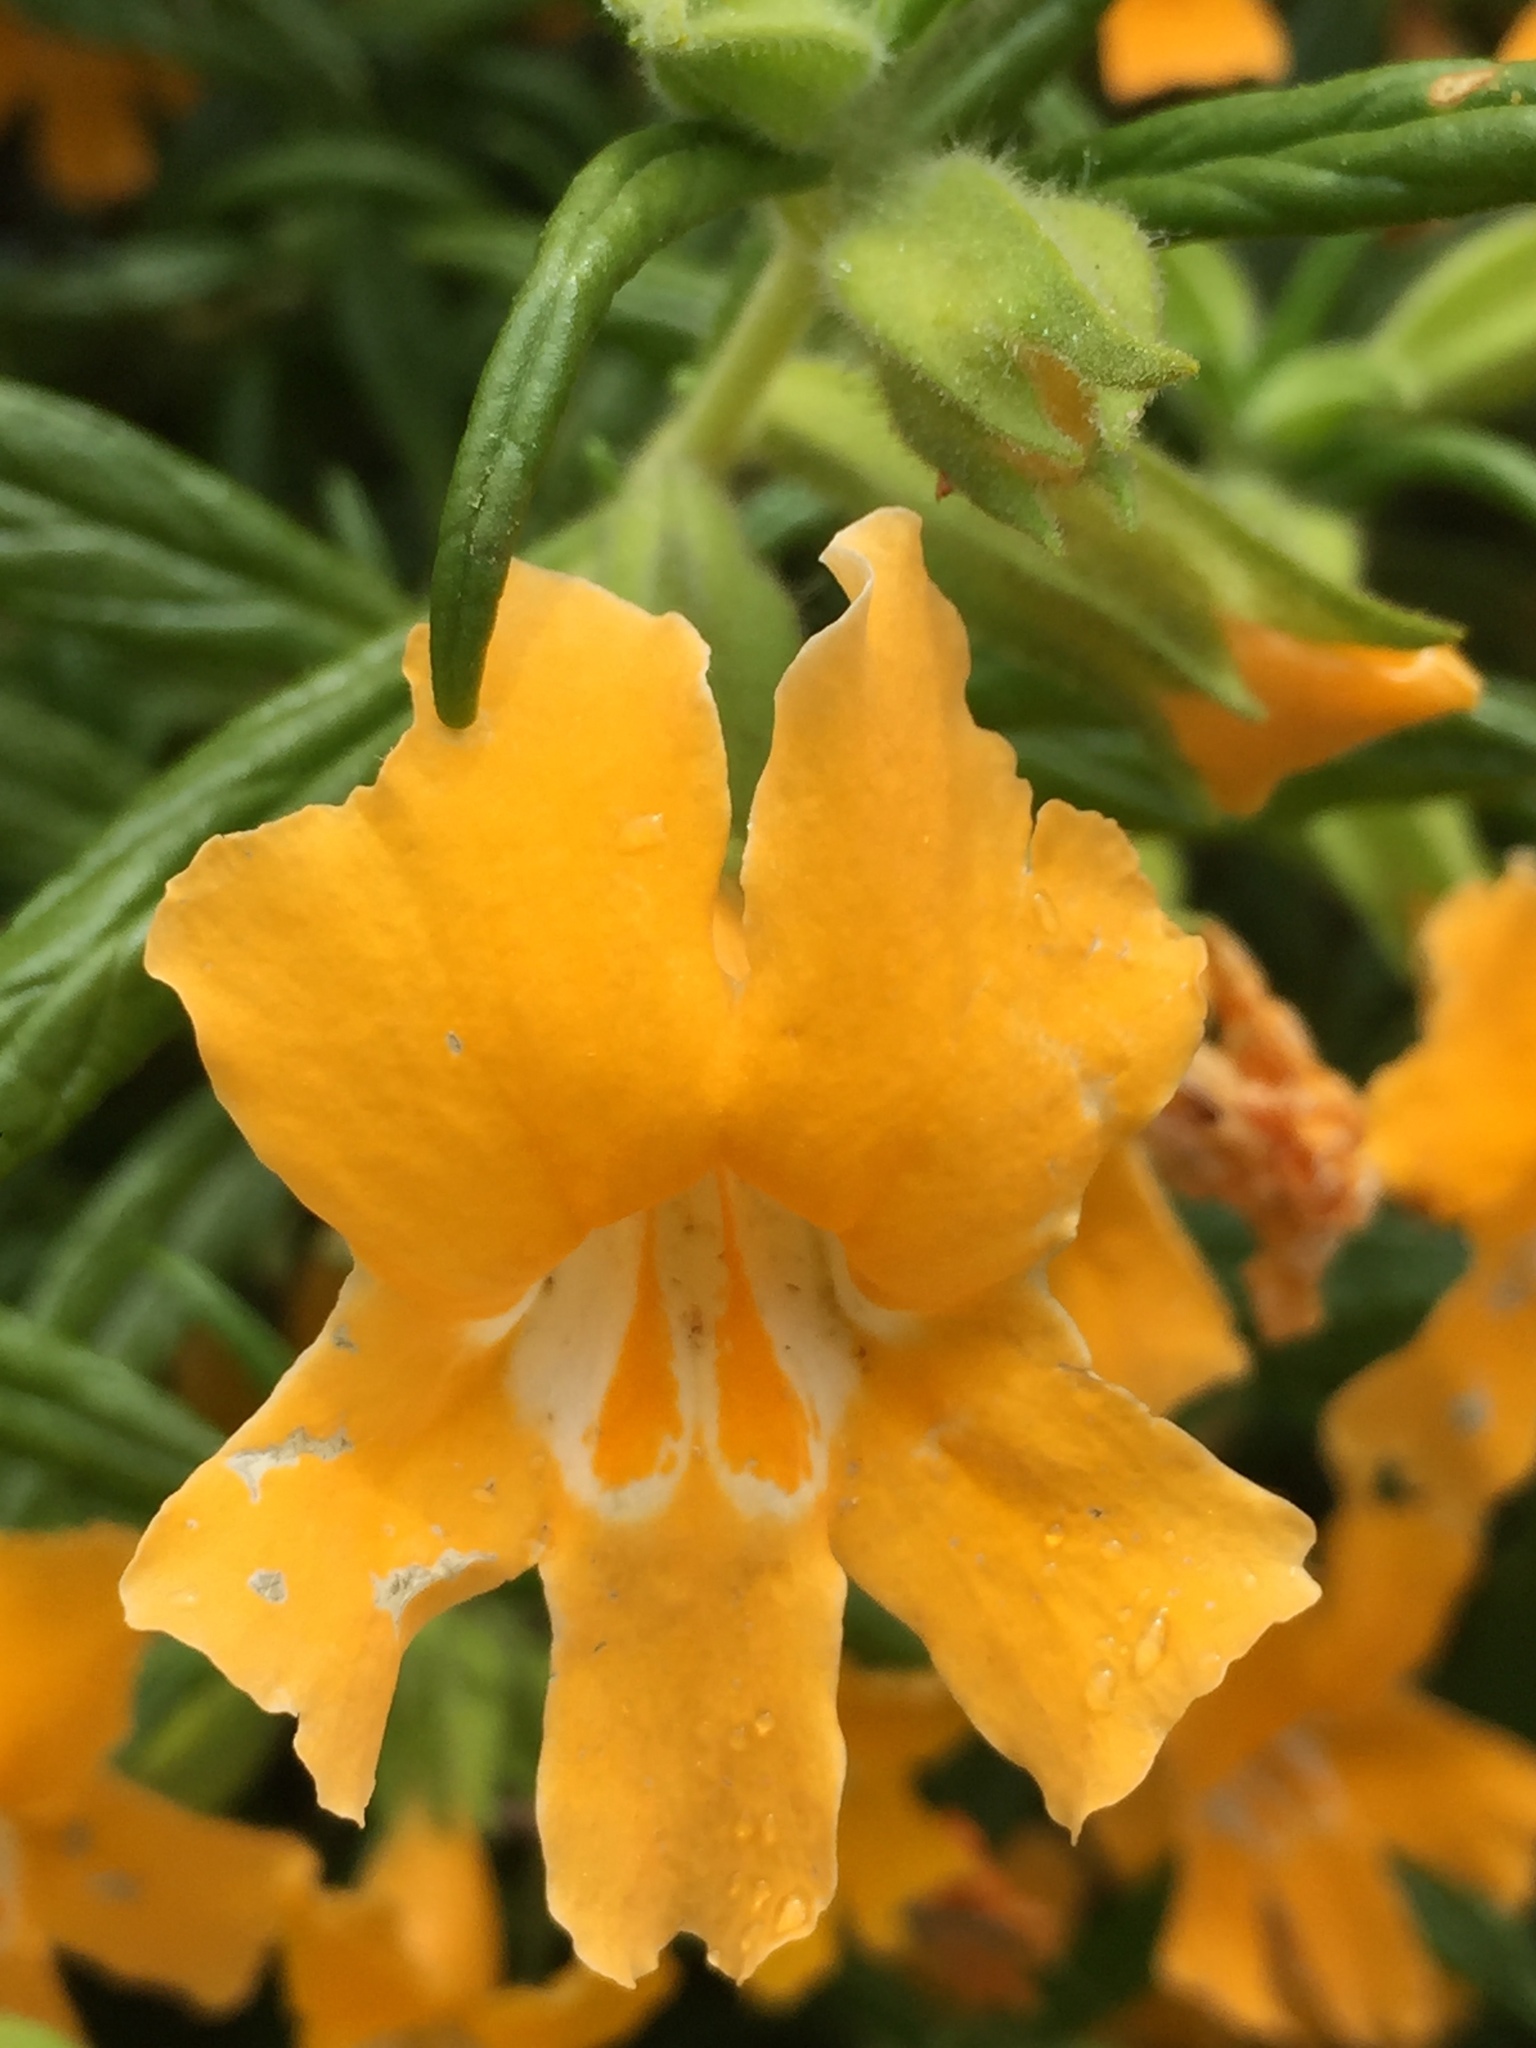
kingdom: Plantae
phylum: Tracheophyta
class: Magnoliopsida
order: Lamiales
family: Phrymaceae
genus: Diplacus
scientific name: Diplacus longiflorus
